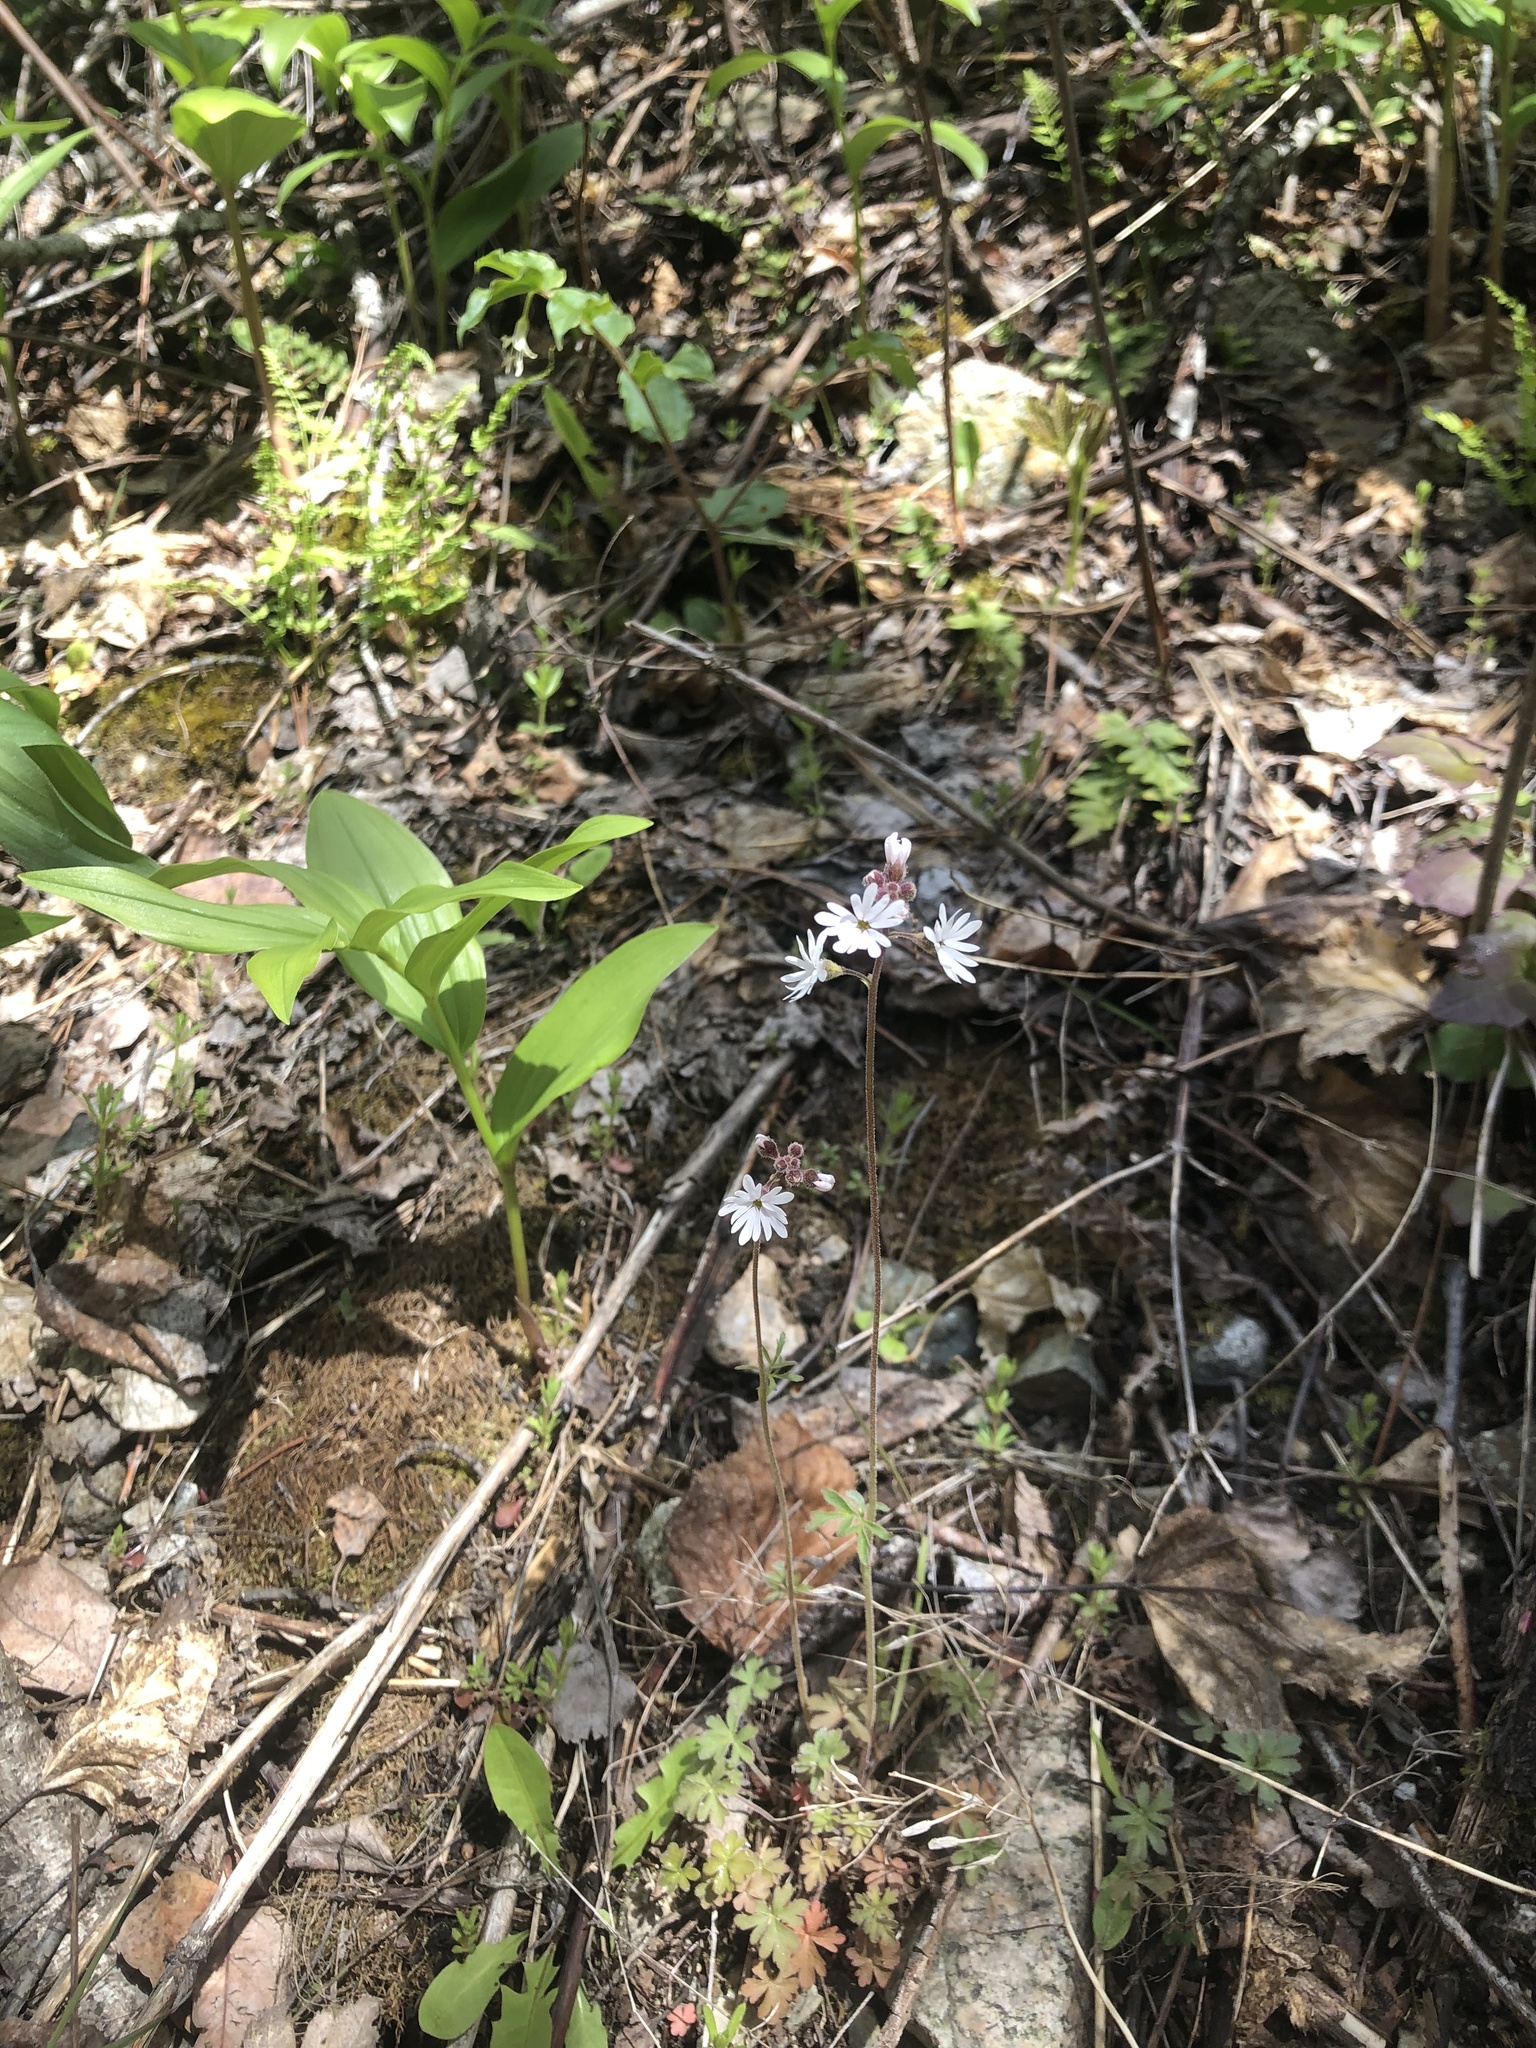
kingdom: Plantae
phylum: Tracheophyta
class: Magnoliopsida
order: Saxifragales
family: Saxifragaceae
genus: Lithophragma
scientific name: Lithophragma parviflorum
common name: Small-flowered fringe-cup
